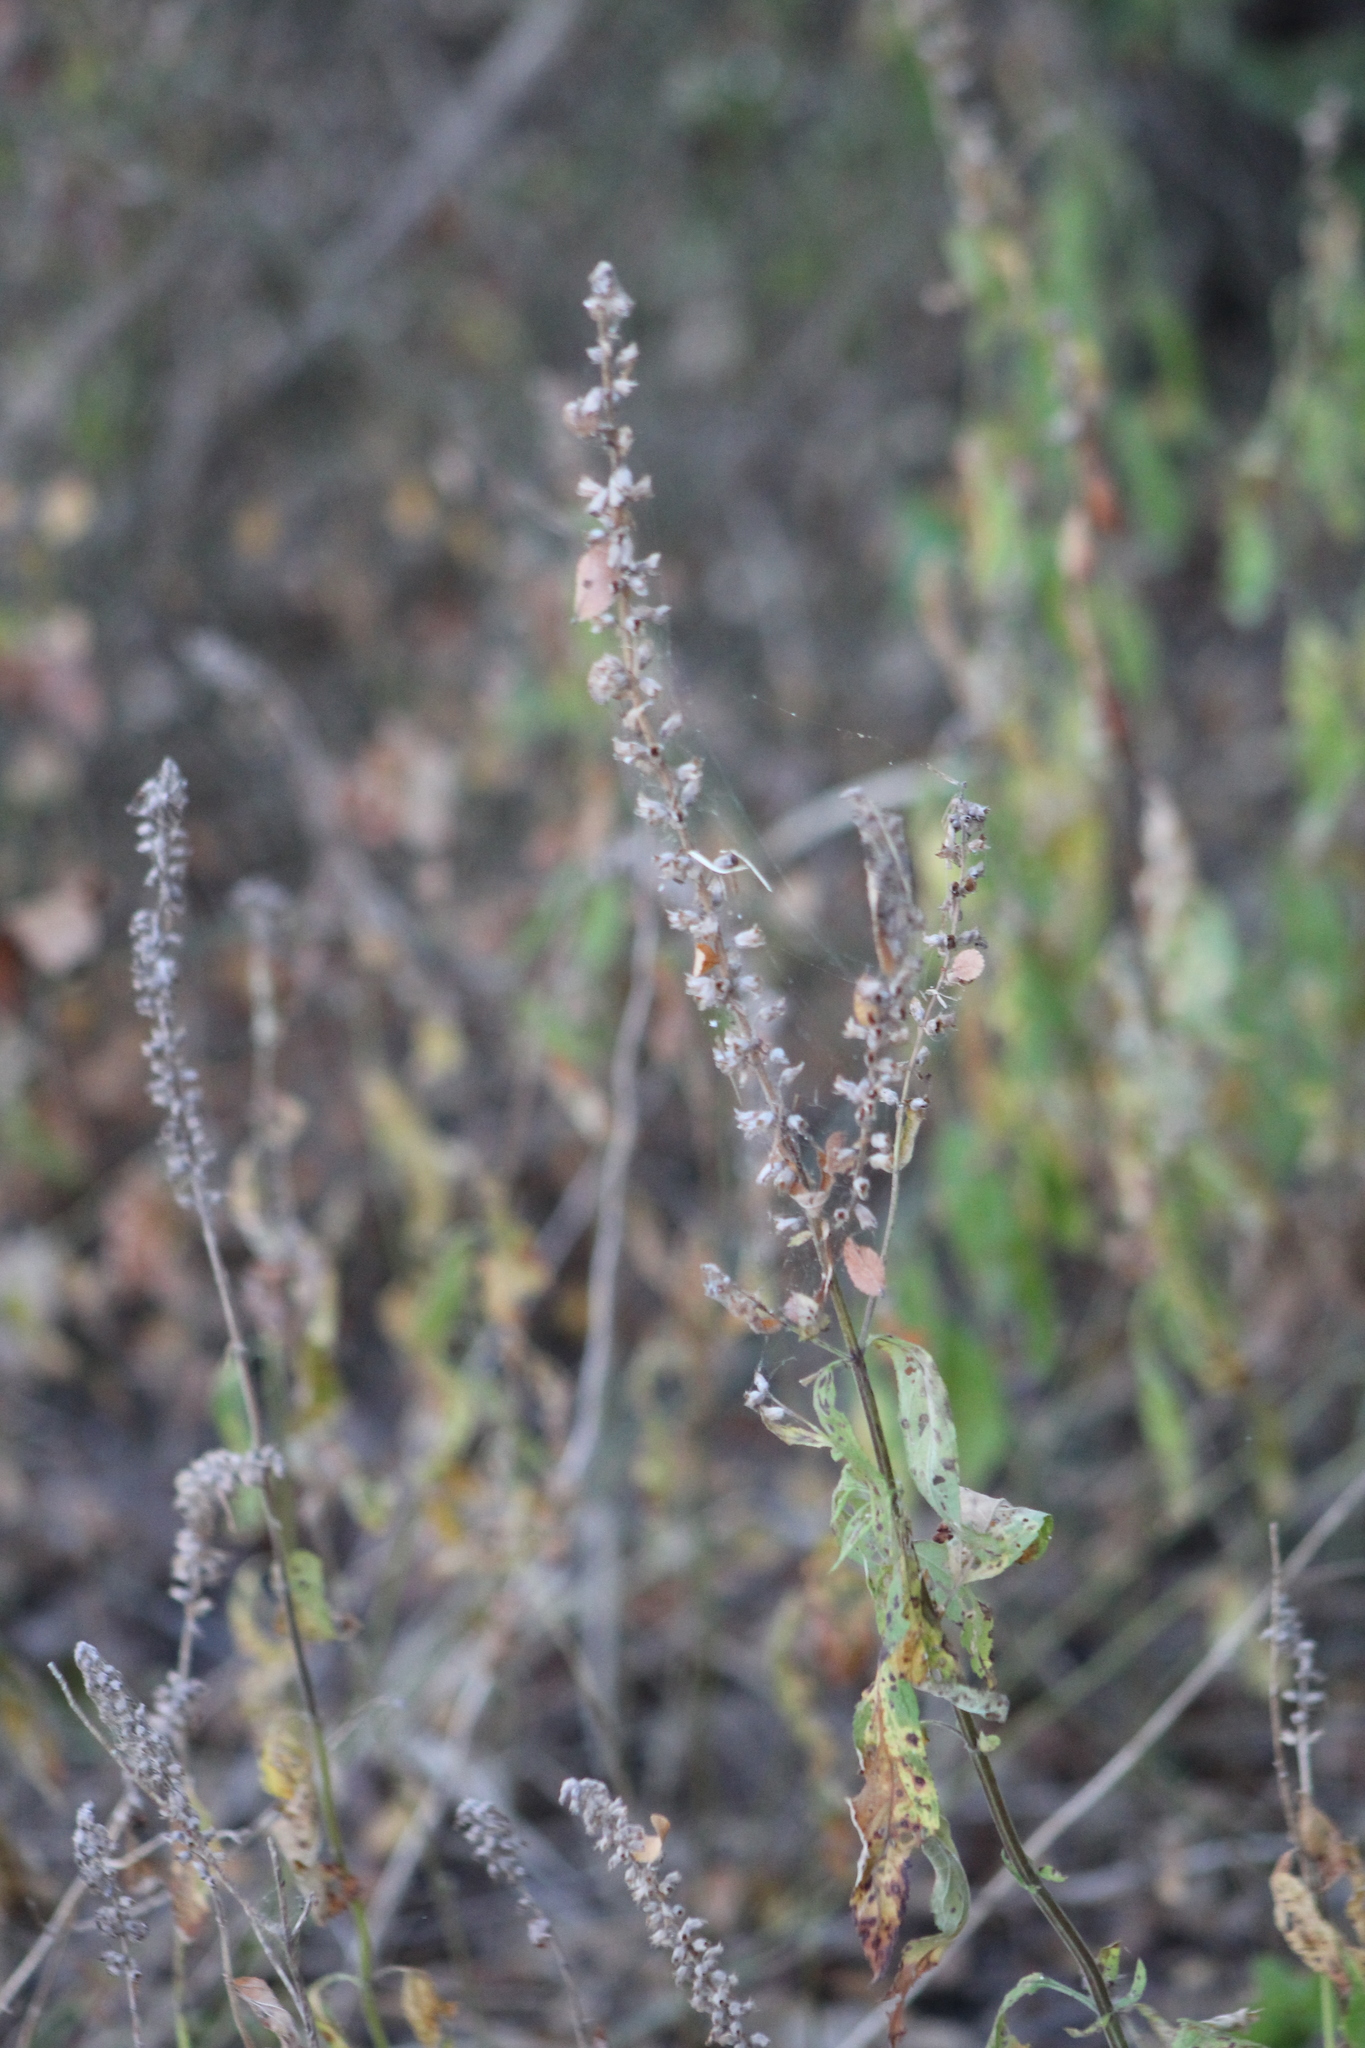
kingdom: Plantae
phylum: Tracheophyta
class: Magnoliopsida
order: Lamiales
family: Lamiaceae
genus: Teucrium
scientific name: Teucrium canadense
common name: American germander
